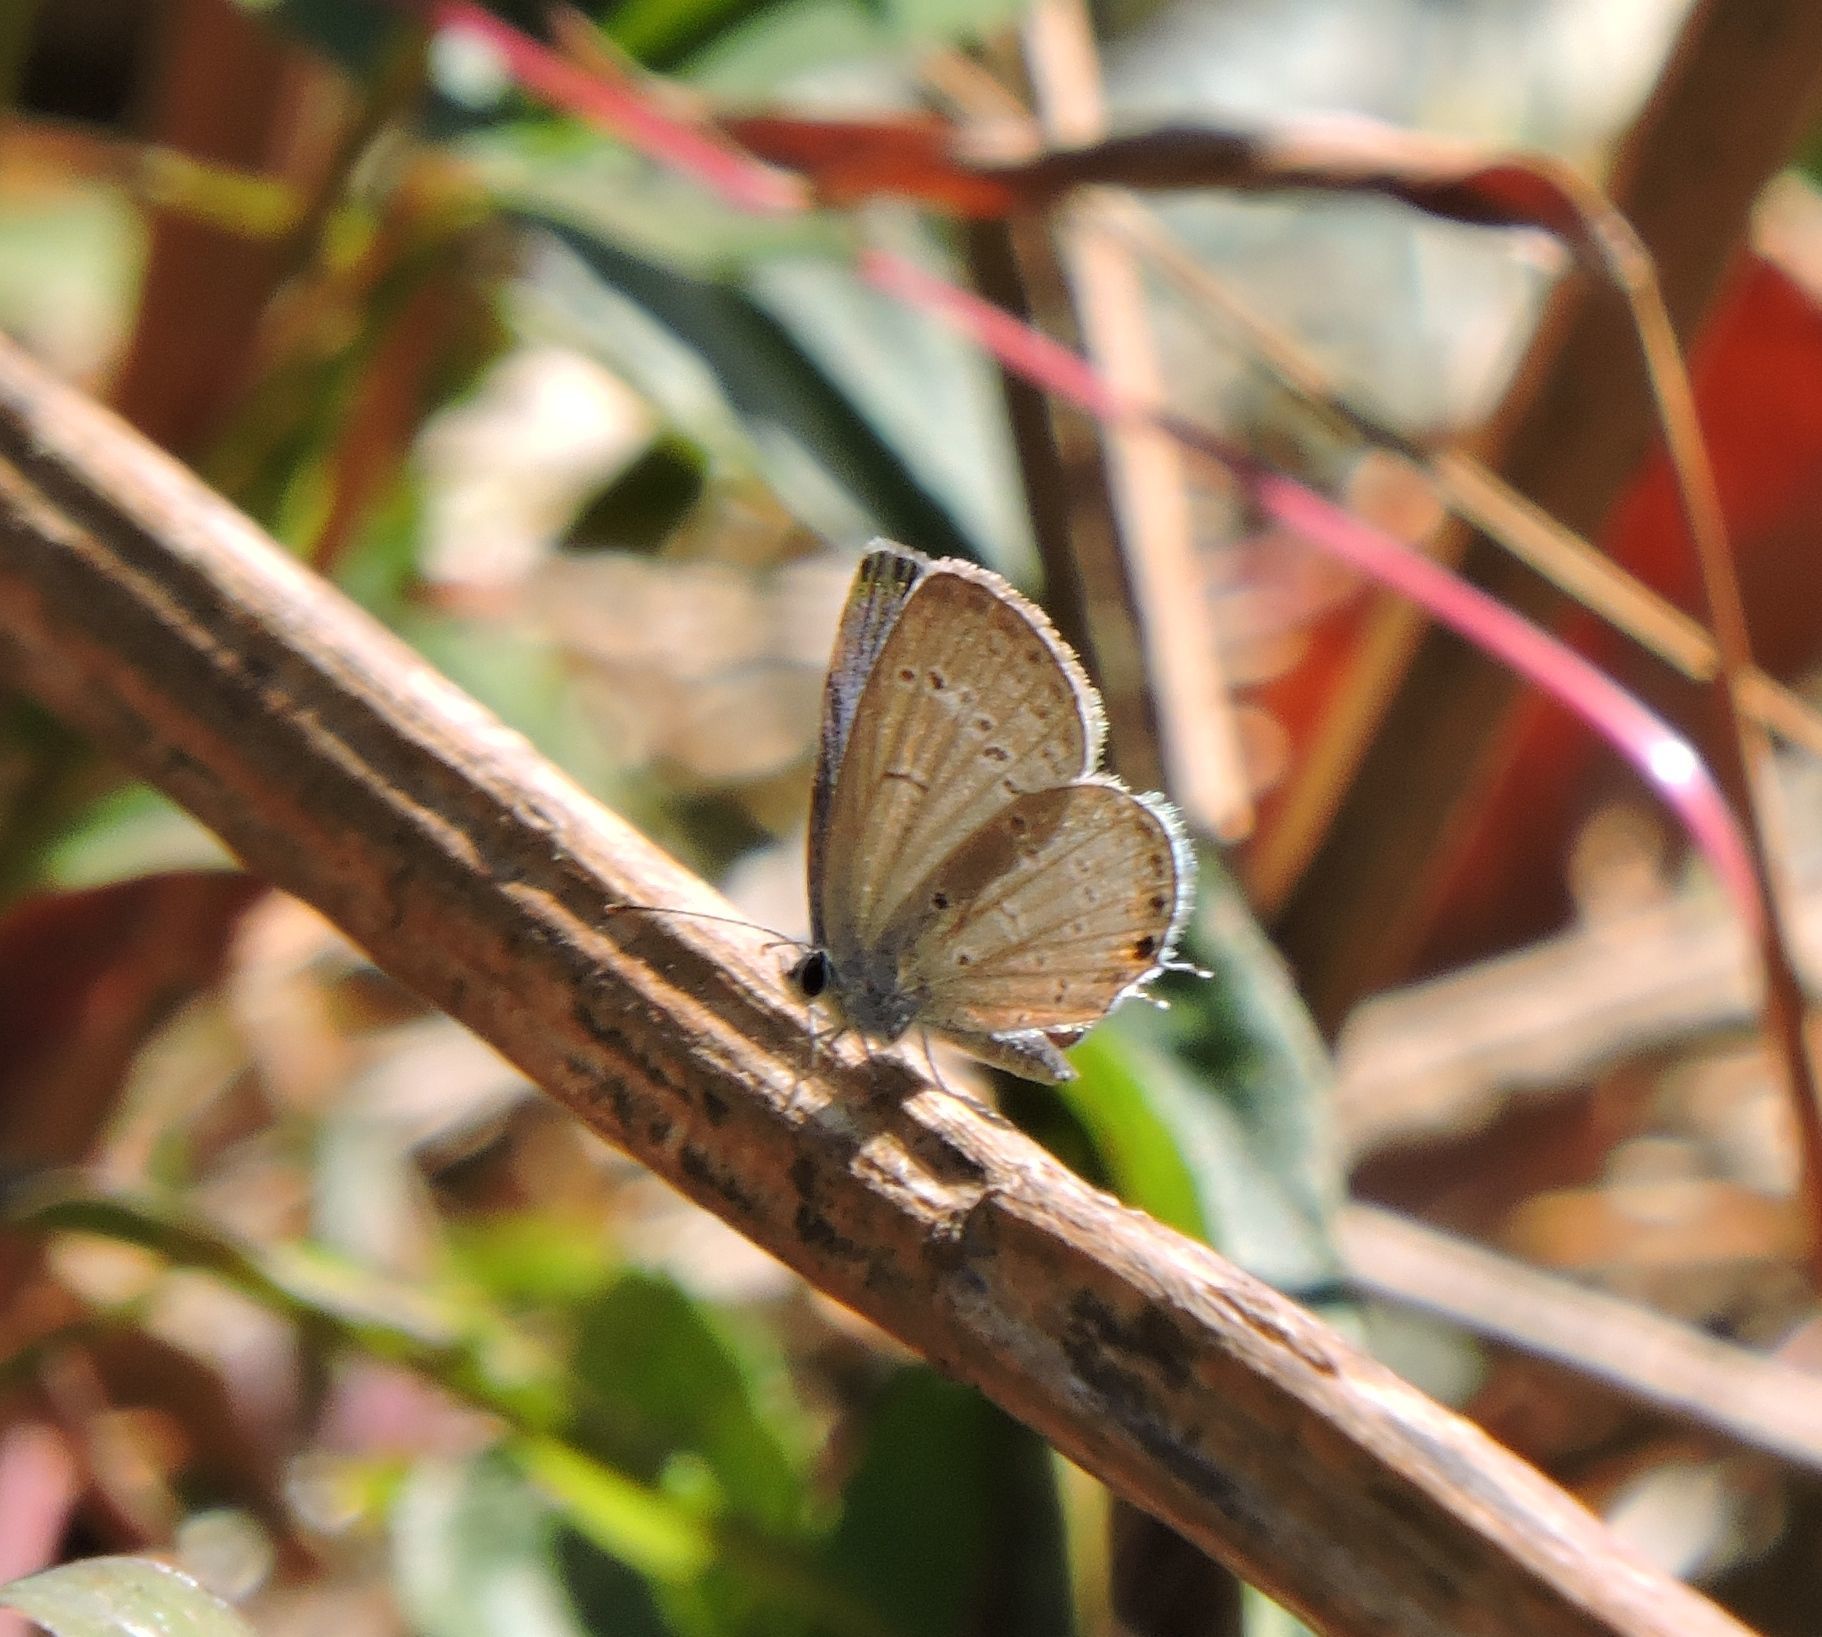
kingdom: Animalia
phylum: Arthropoda
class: Insecta
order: Lepidoptera
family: Lycaenidae
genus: Elkalyce
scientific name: Elkalyce comyntas
